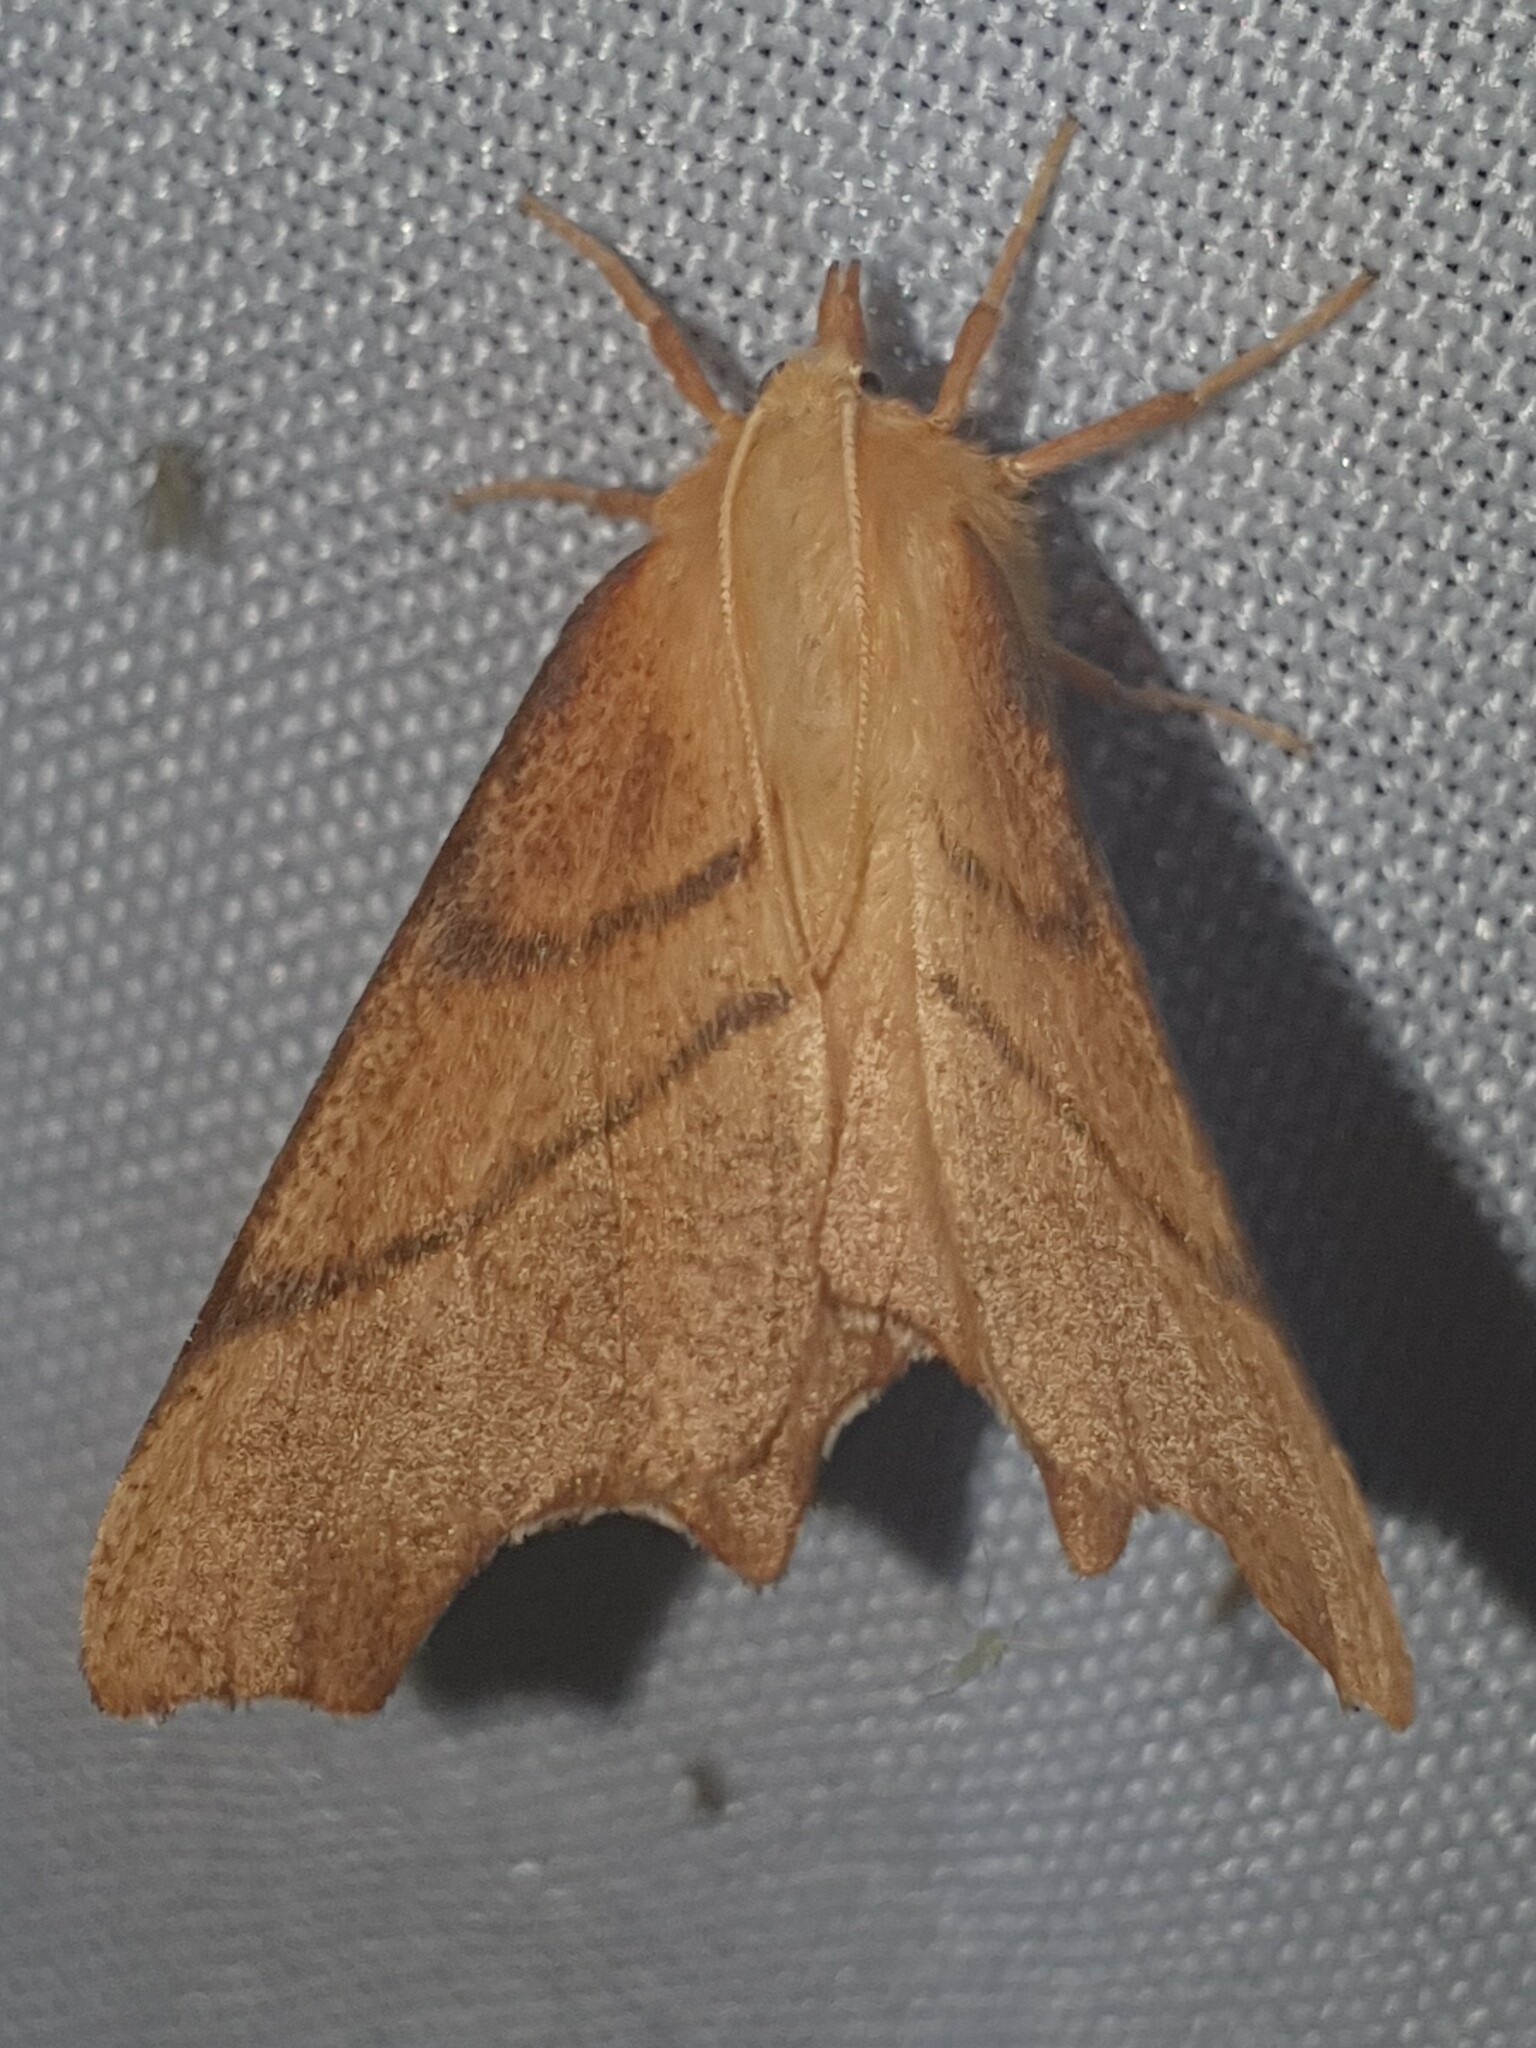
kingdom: Animalia
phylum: Arthropoda
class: Insecta
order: Lepidoptera
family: Geometridae
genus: Ennomos
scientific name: Ennomos erosaria
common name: September thorn
